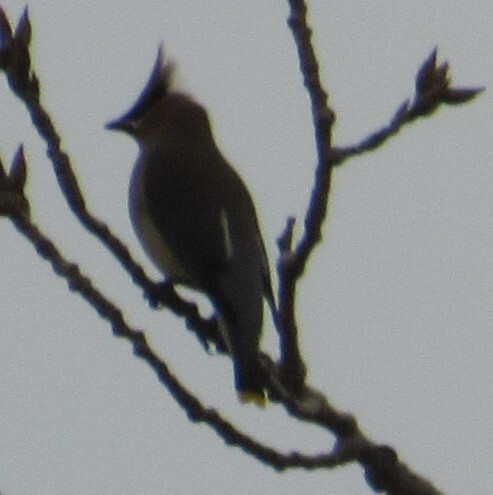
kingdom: Animalia
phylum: Chordata
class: Aves
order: Passeriformes
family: Bombycillidae
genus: Bombycilla
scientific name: Bombycilla cedrorum
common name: Cedar waxwing
